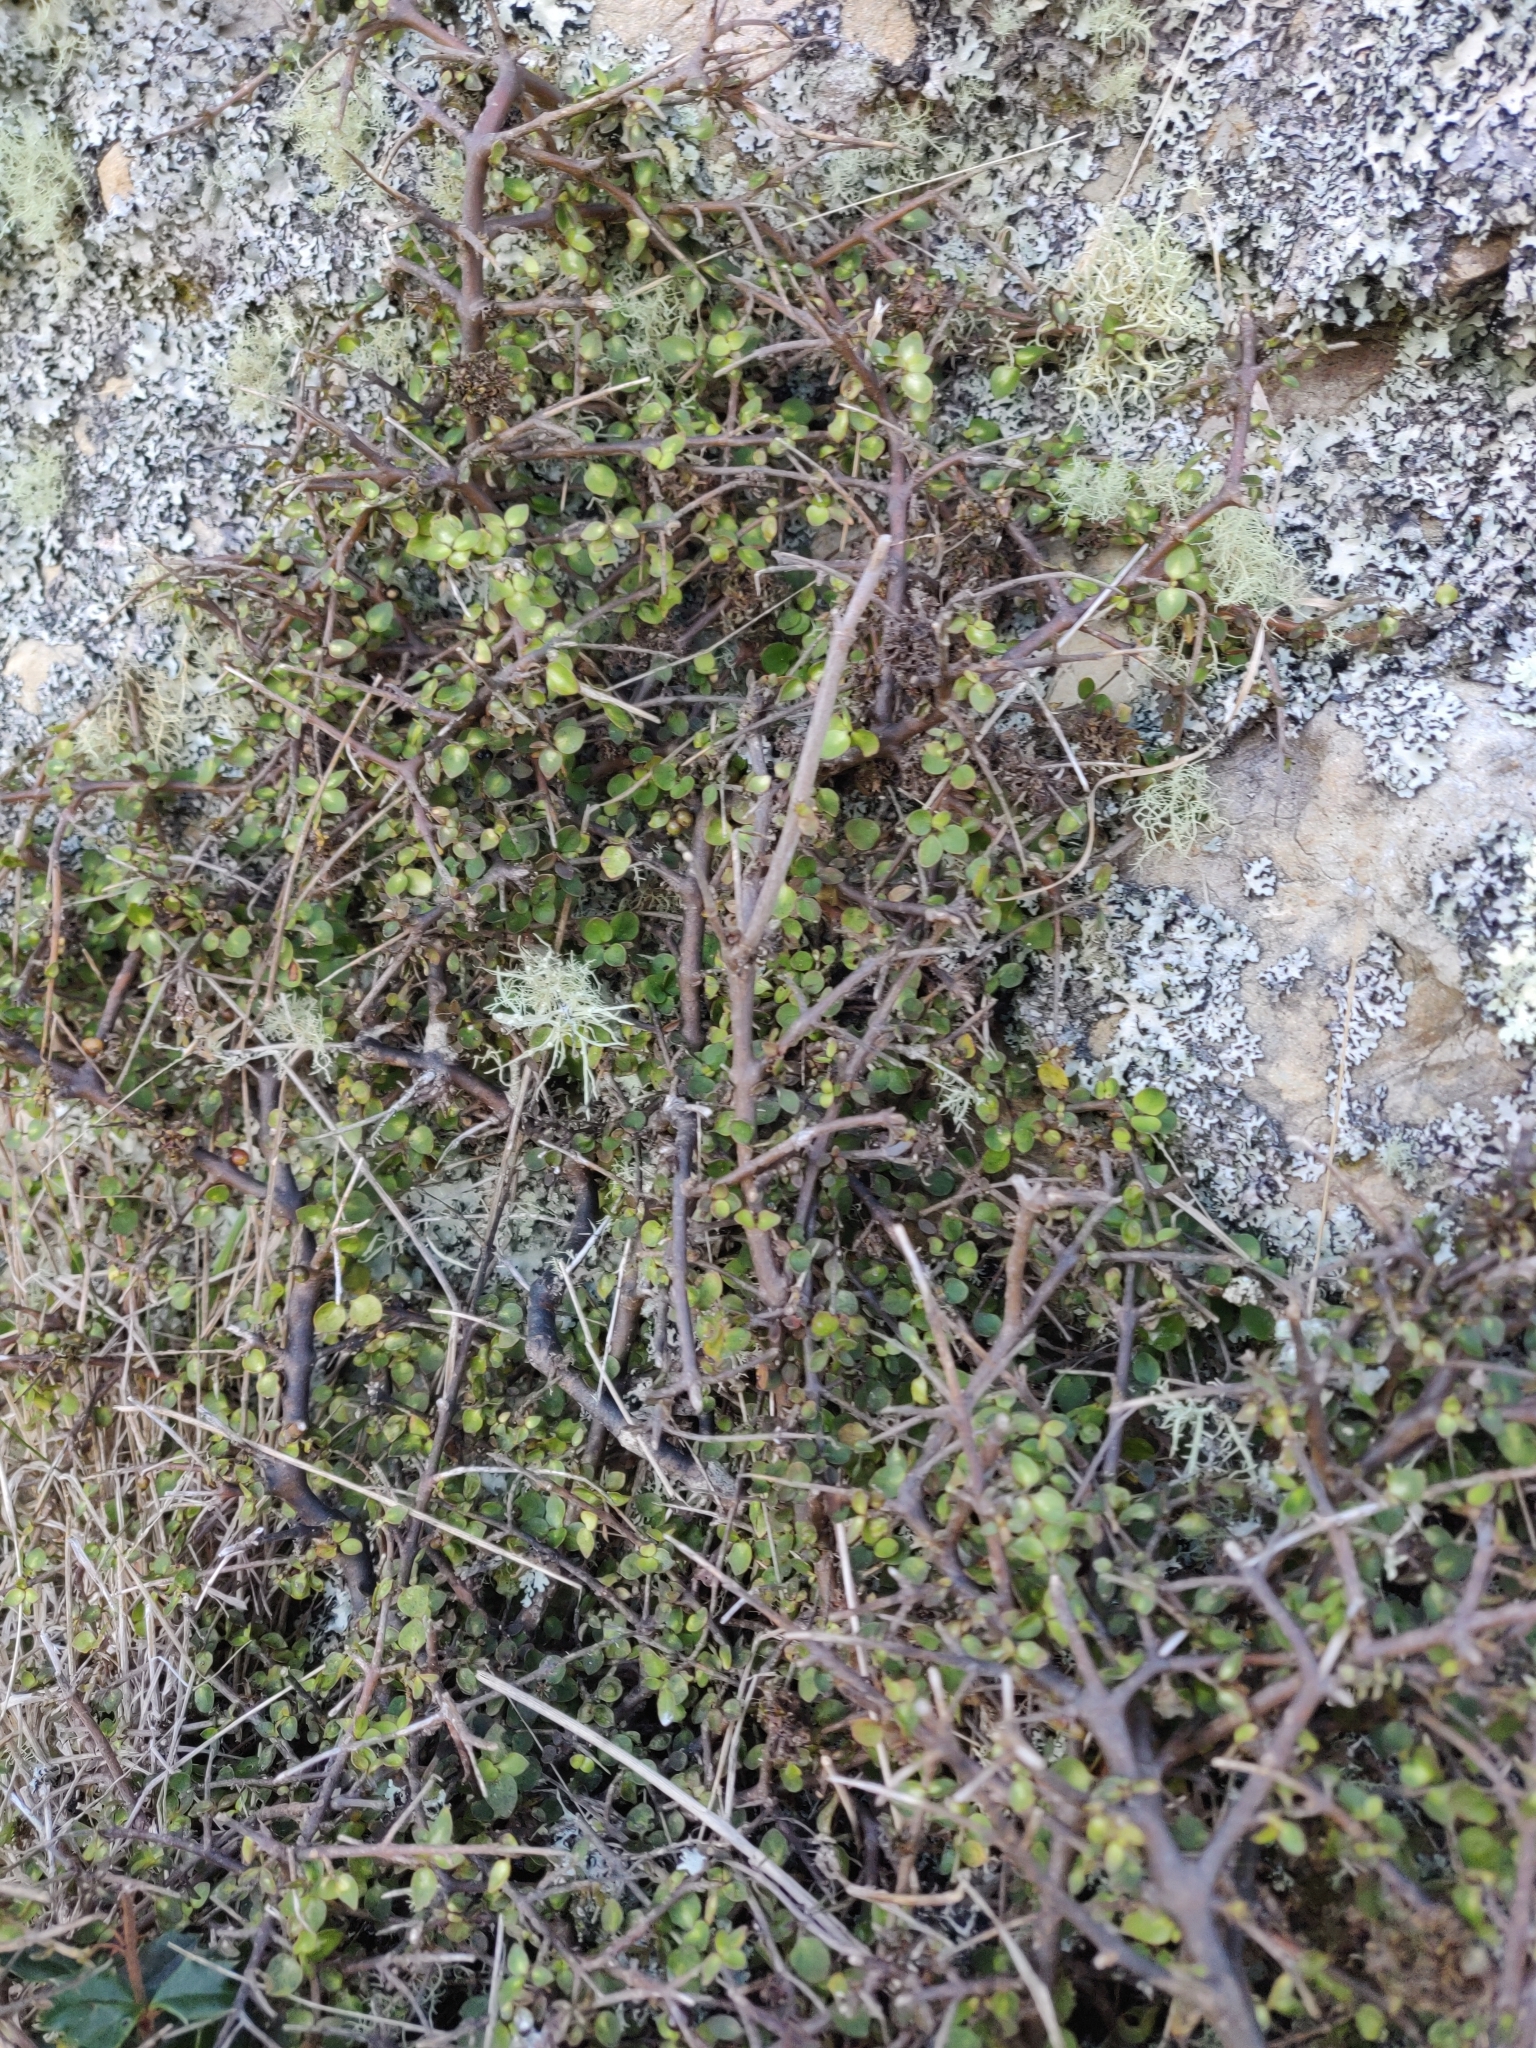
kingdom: Plantae
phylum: Tracheophyta
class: Magnoliopsida
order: Gentianales
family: Rubiaceae
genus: Coprosma
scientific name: Coprosma rhamnoides
